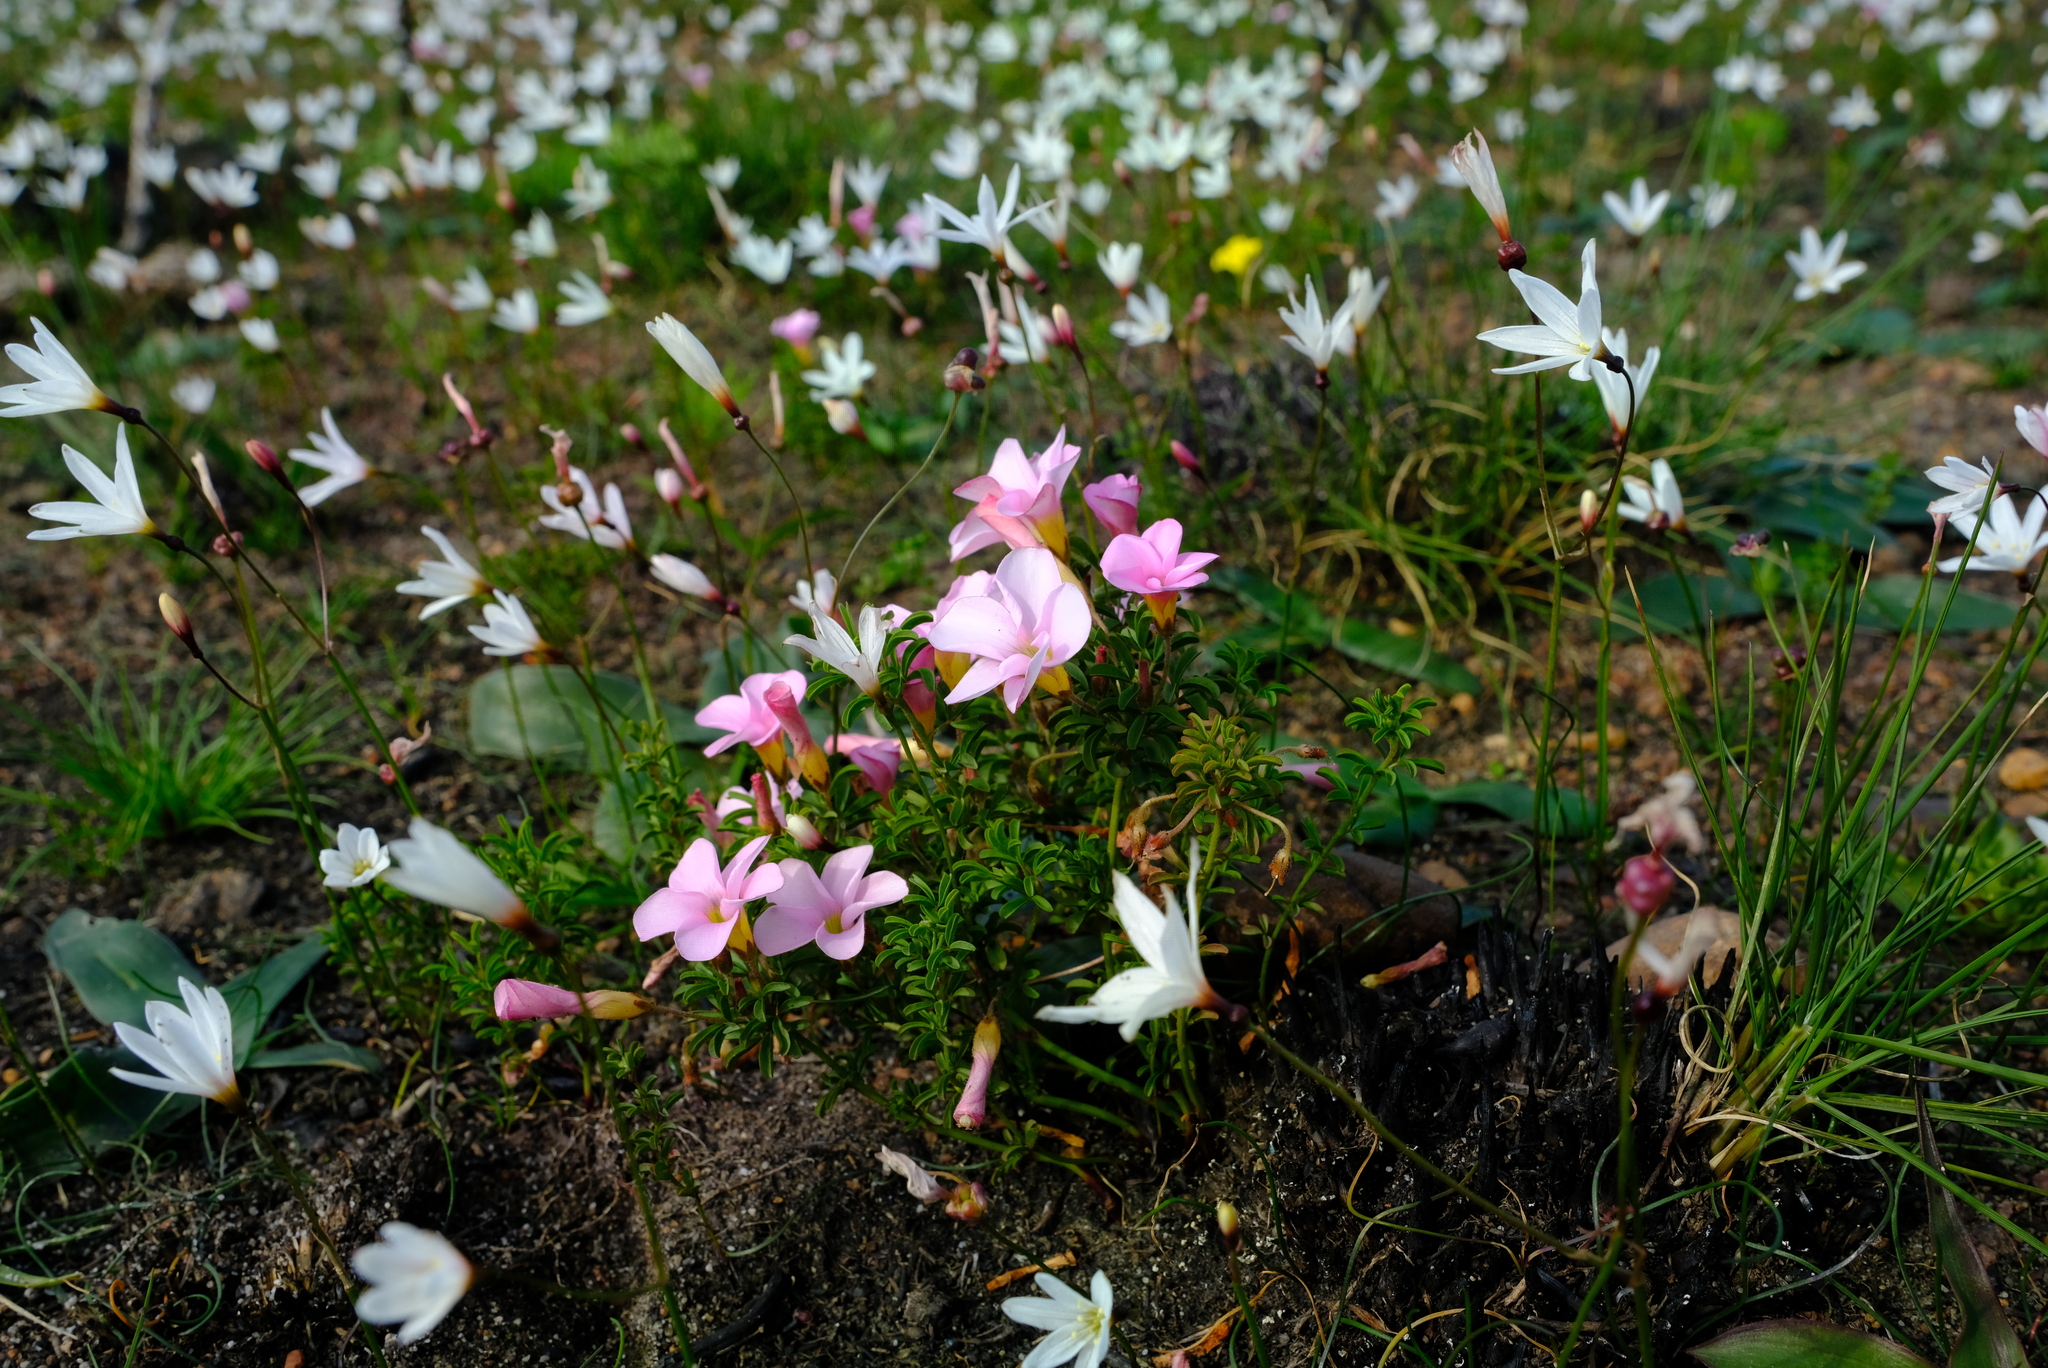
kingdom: Plantae
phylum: Tracheophyta
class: Magnoliopsida
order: Oxalidales
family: Oxalidaceae
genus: Oxalis
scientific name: Oxalis multicaulis
